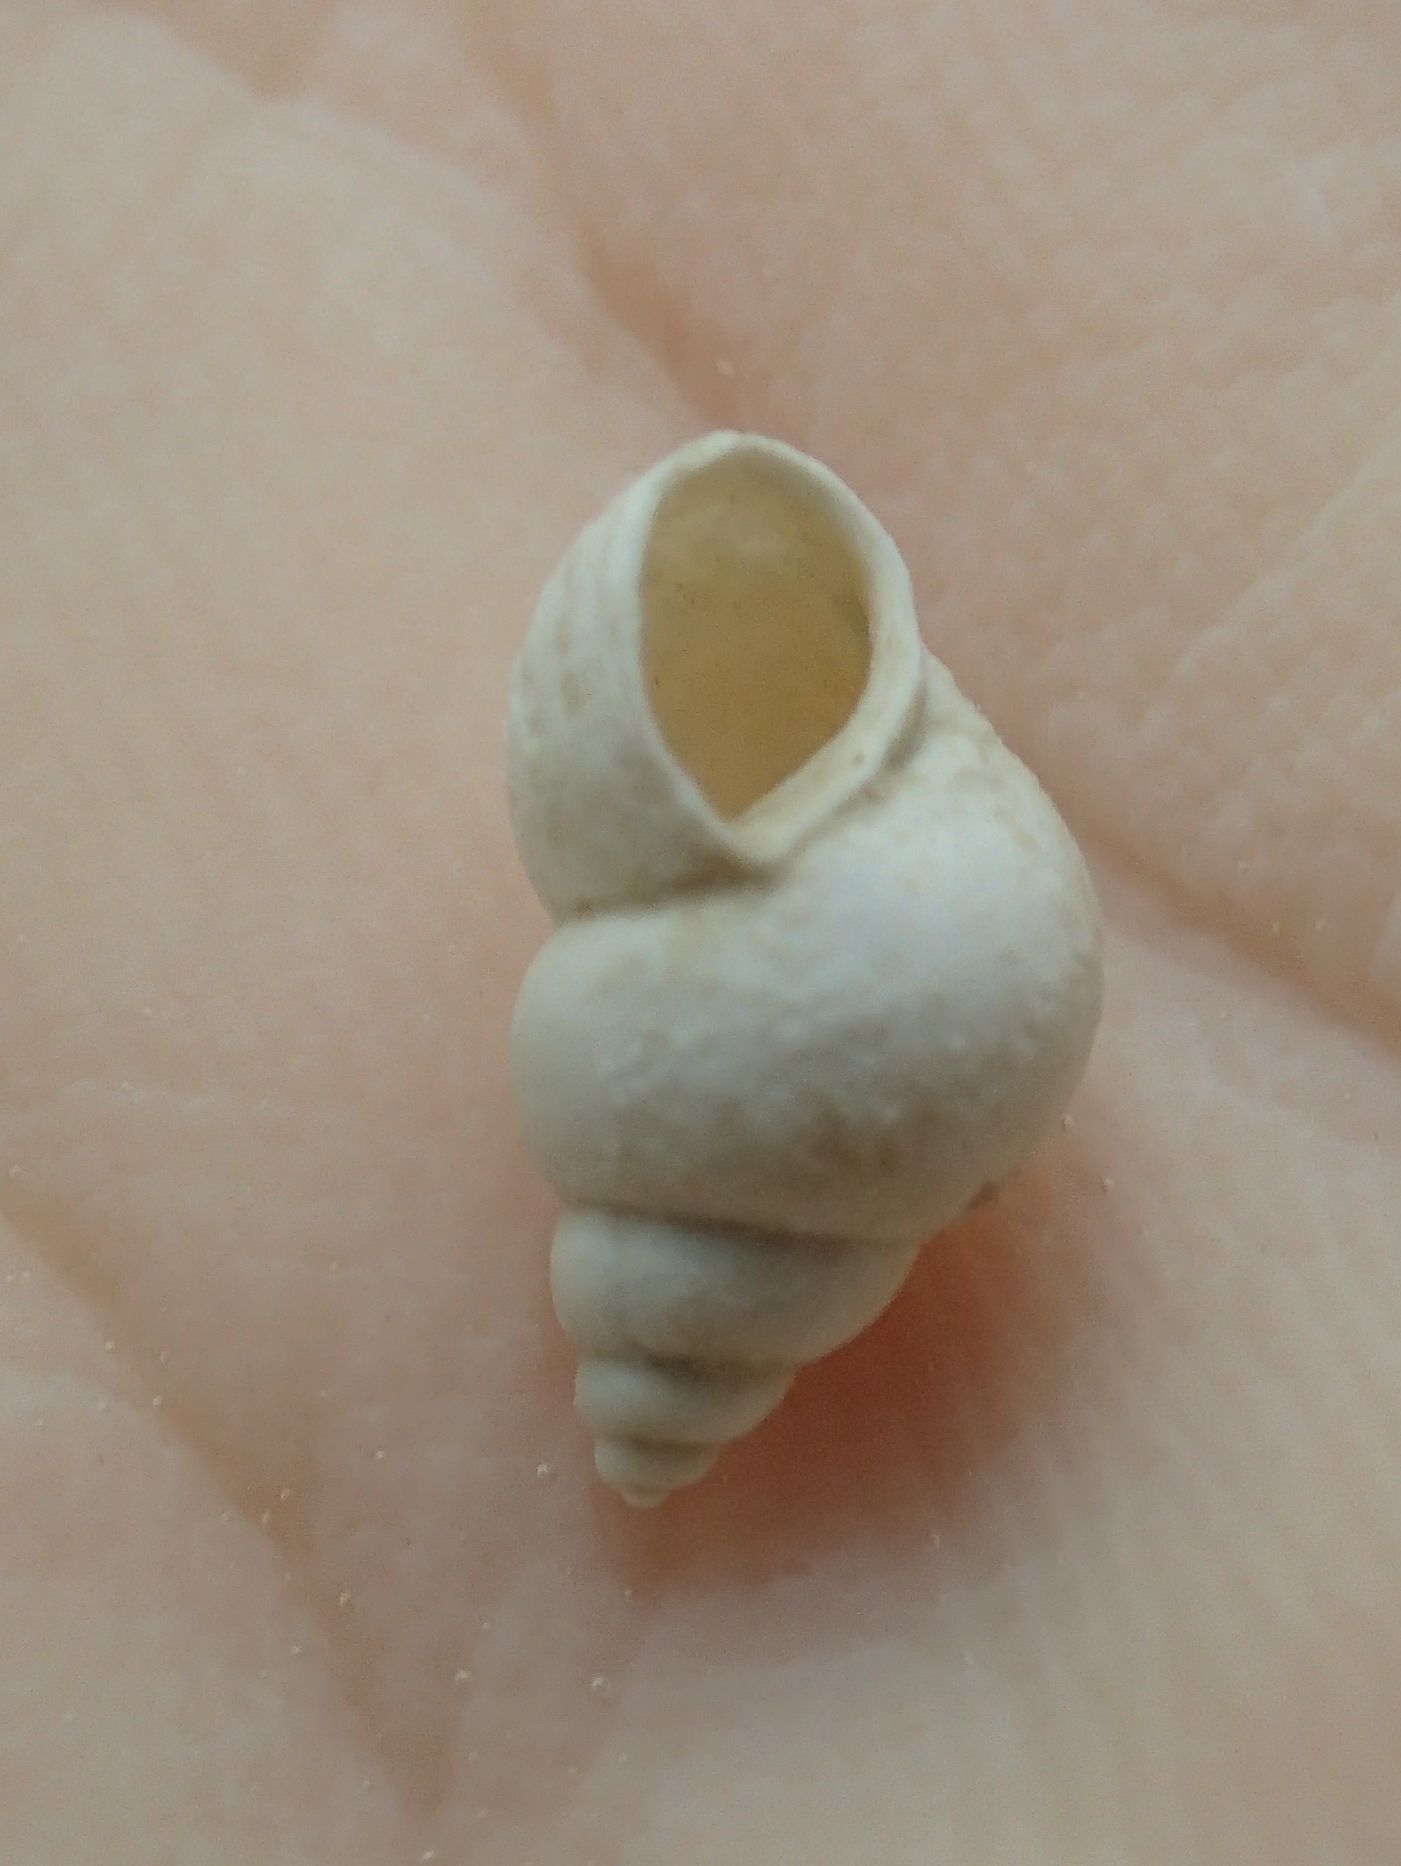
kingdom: Animalia
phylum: Mollusca
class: Gastropoda
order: Littorinimorpha
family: Bithyniidae
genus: Bithynia
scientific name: Bithynia tentaculata
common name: Common bithynia
